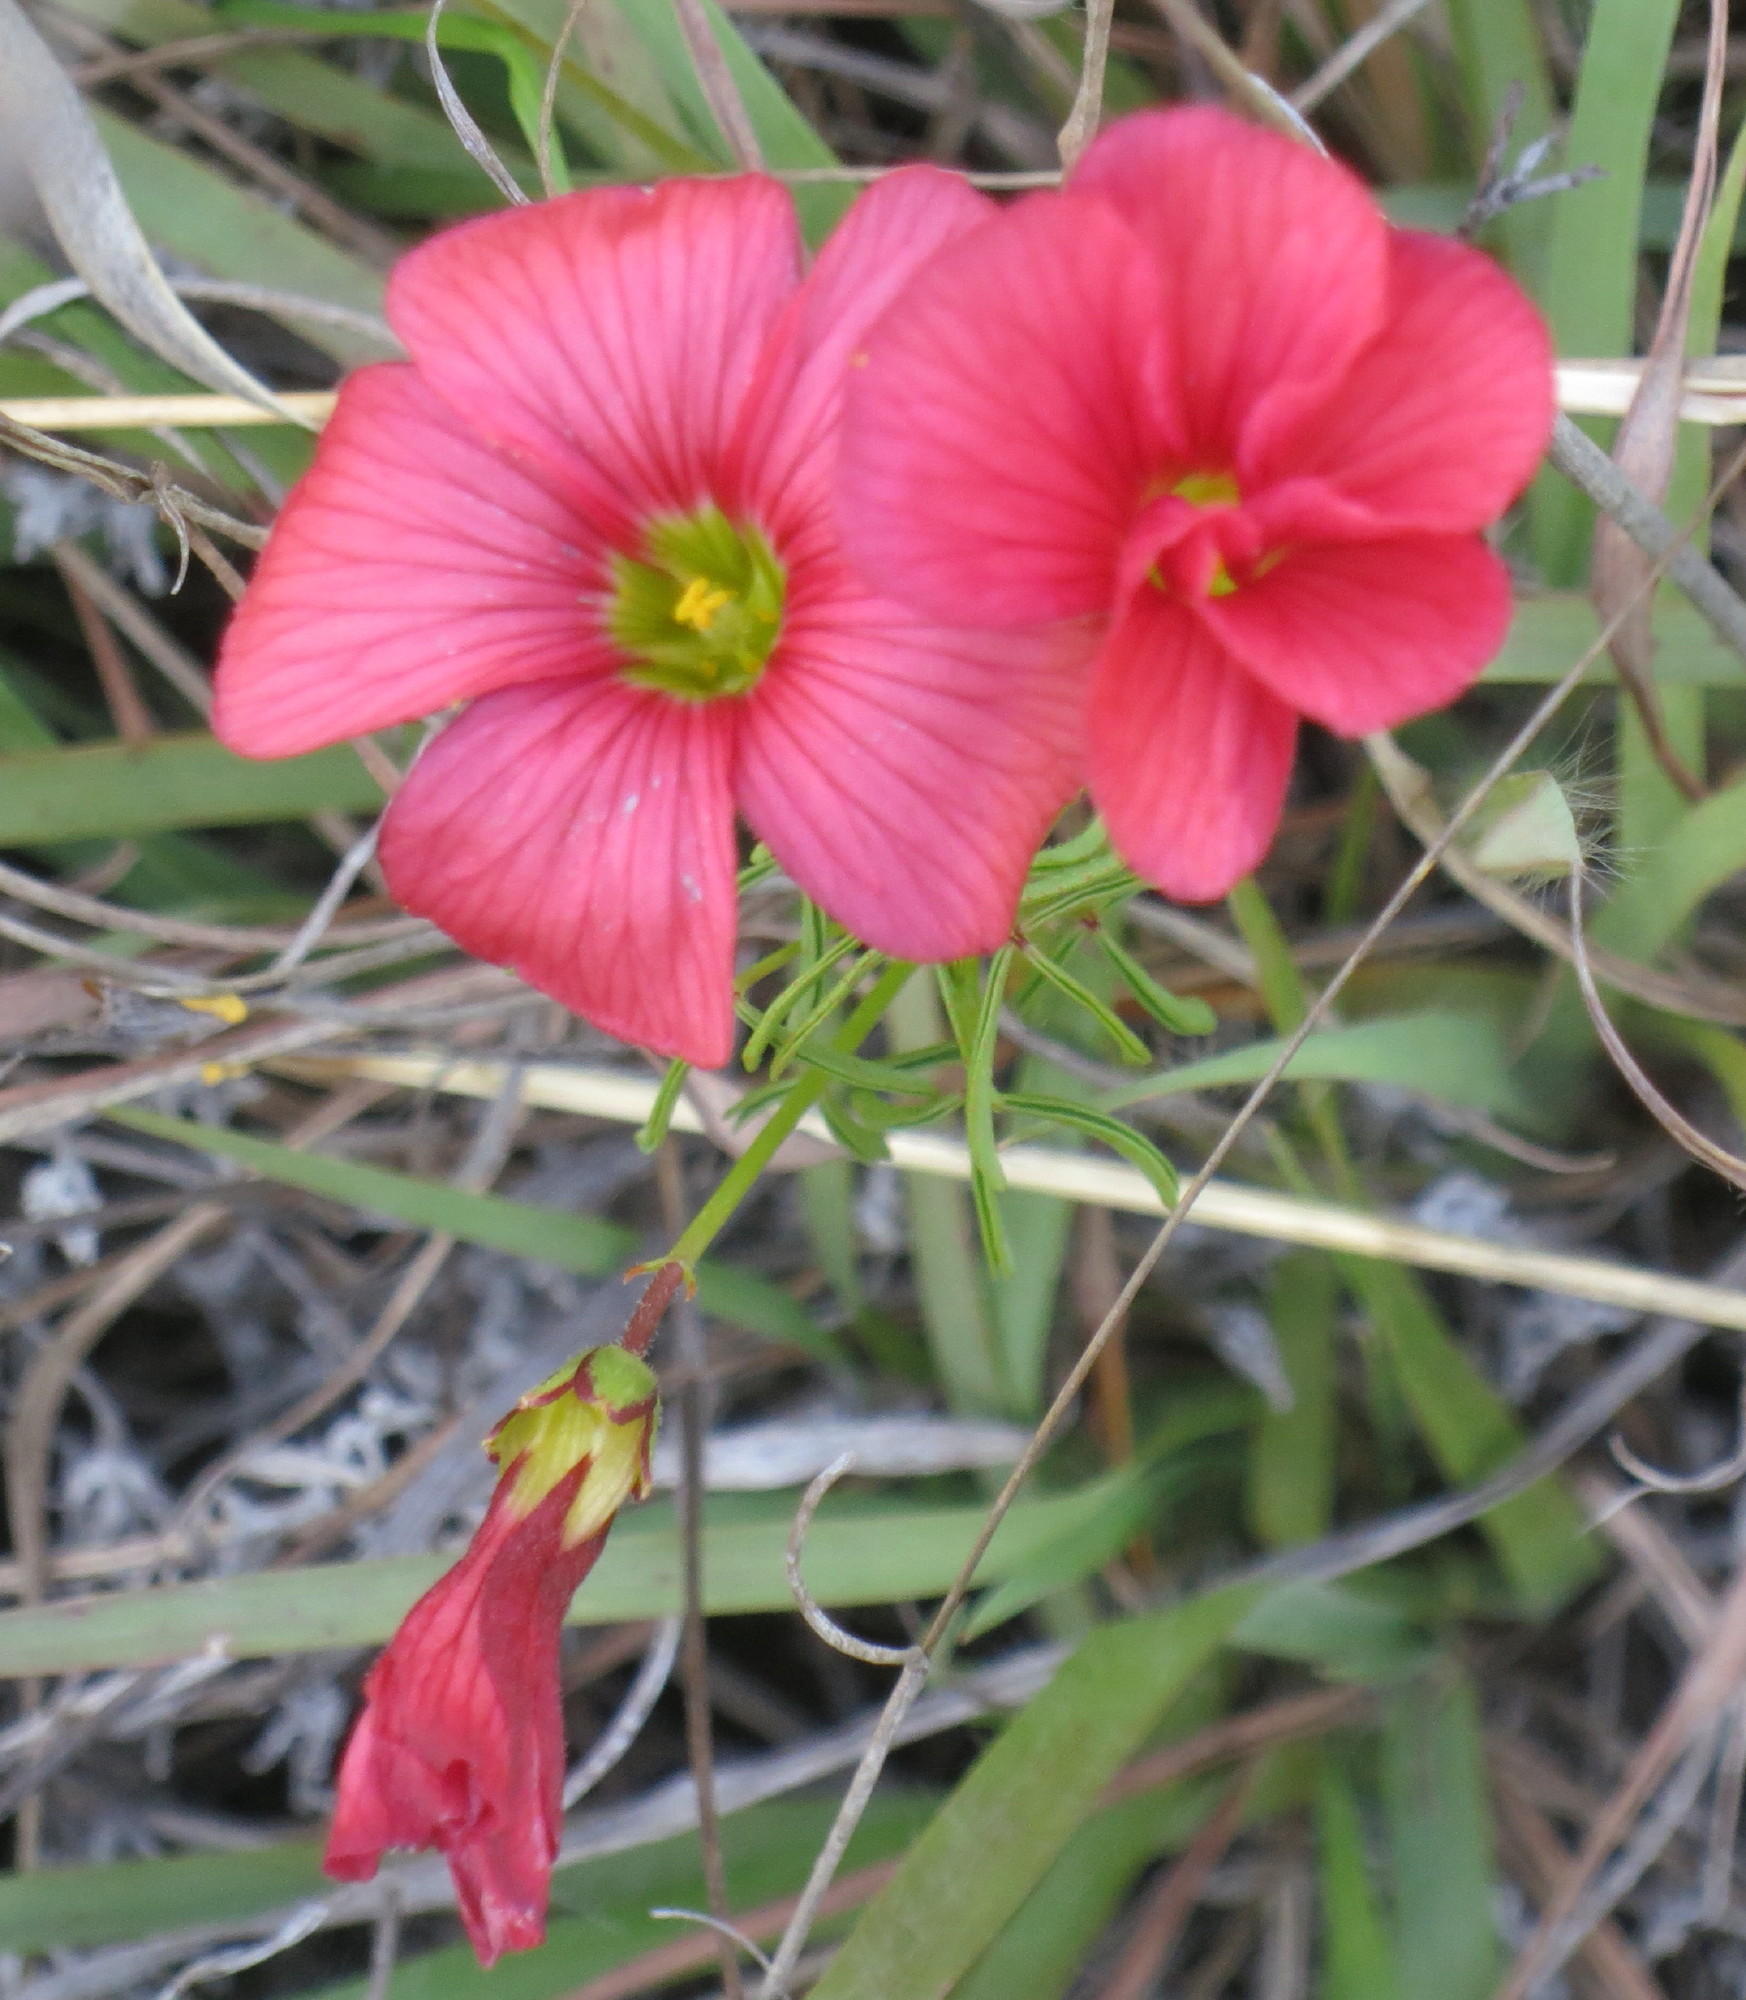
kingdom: Plantae
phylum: Tracheophyta
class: Magnoliopsida
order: Oxalidales
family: Oxalidaceae
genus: Oxalis
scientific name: Oxalis pendulifolia
